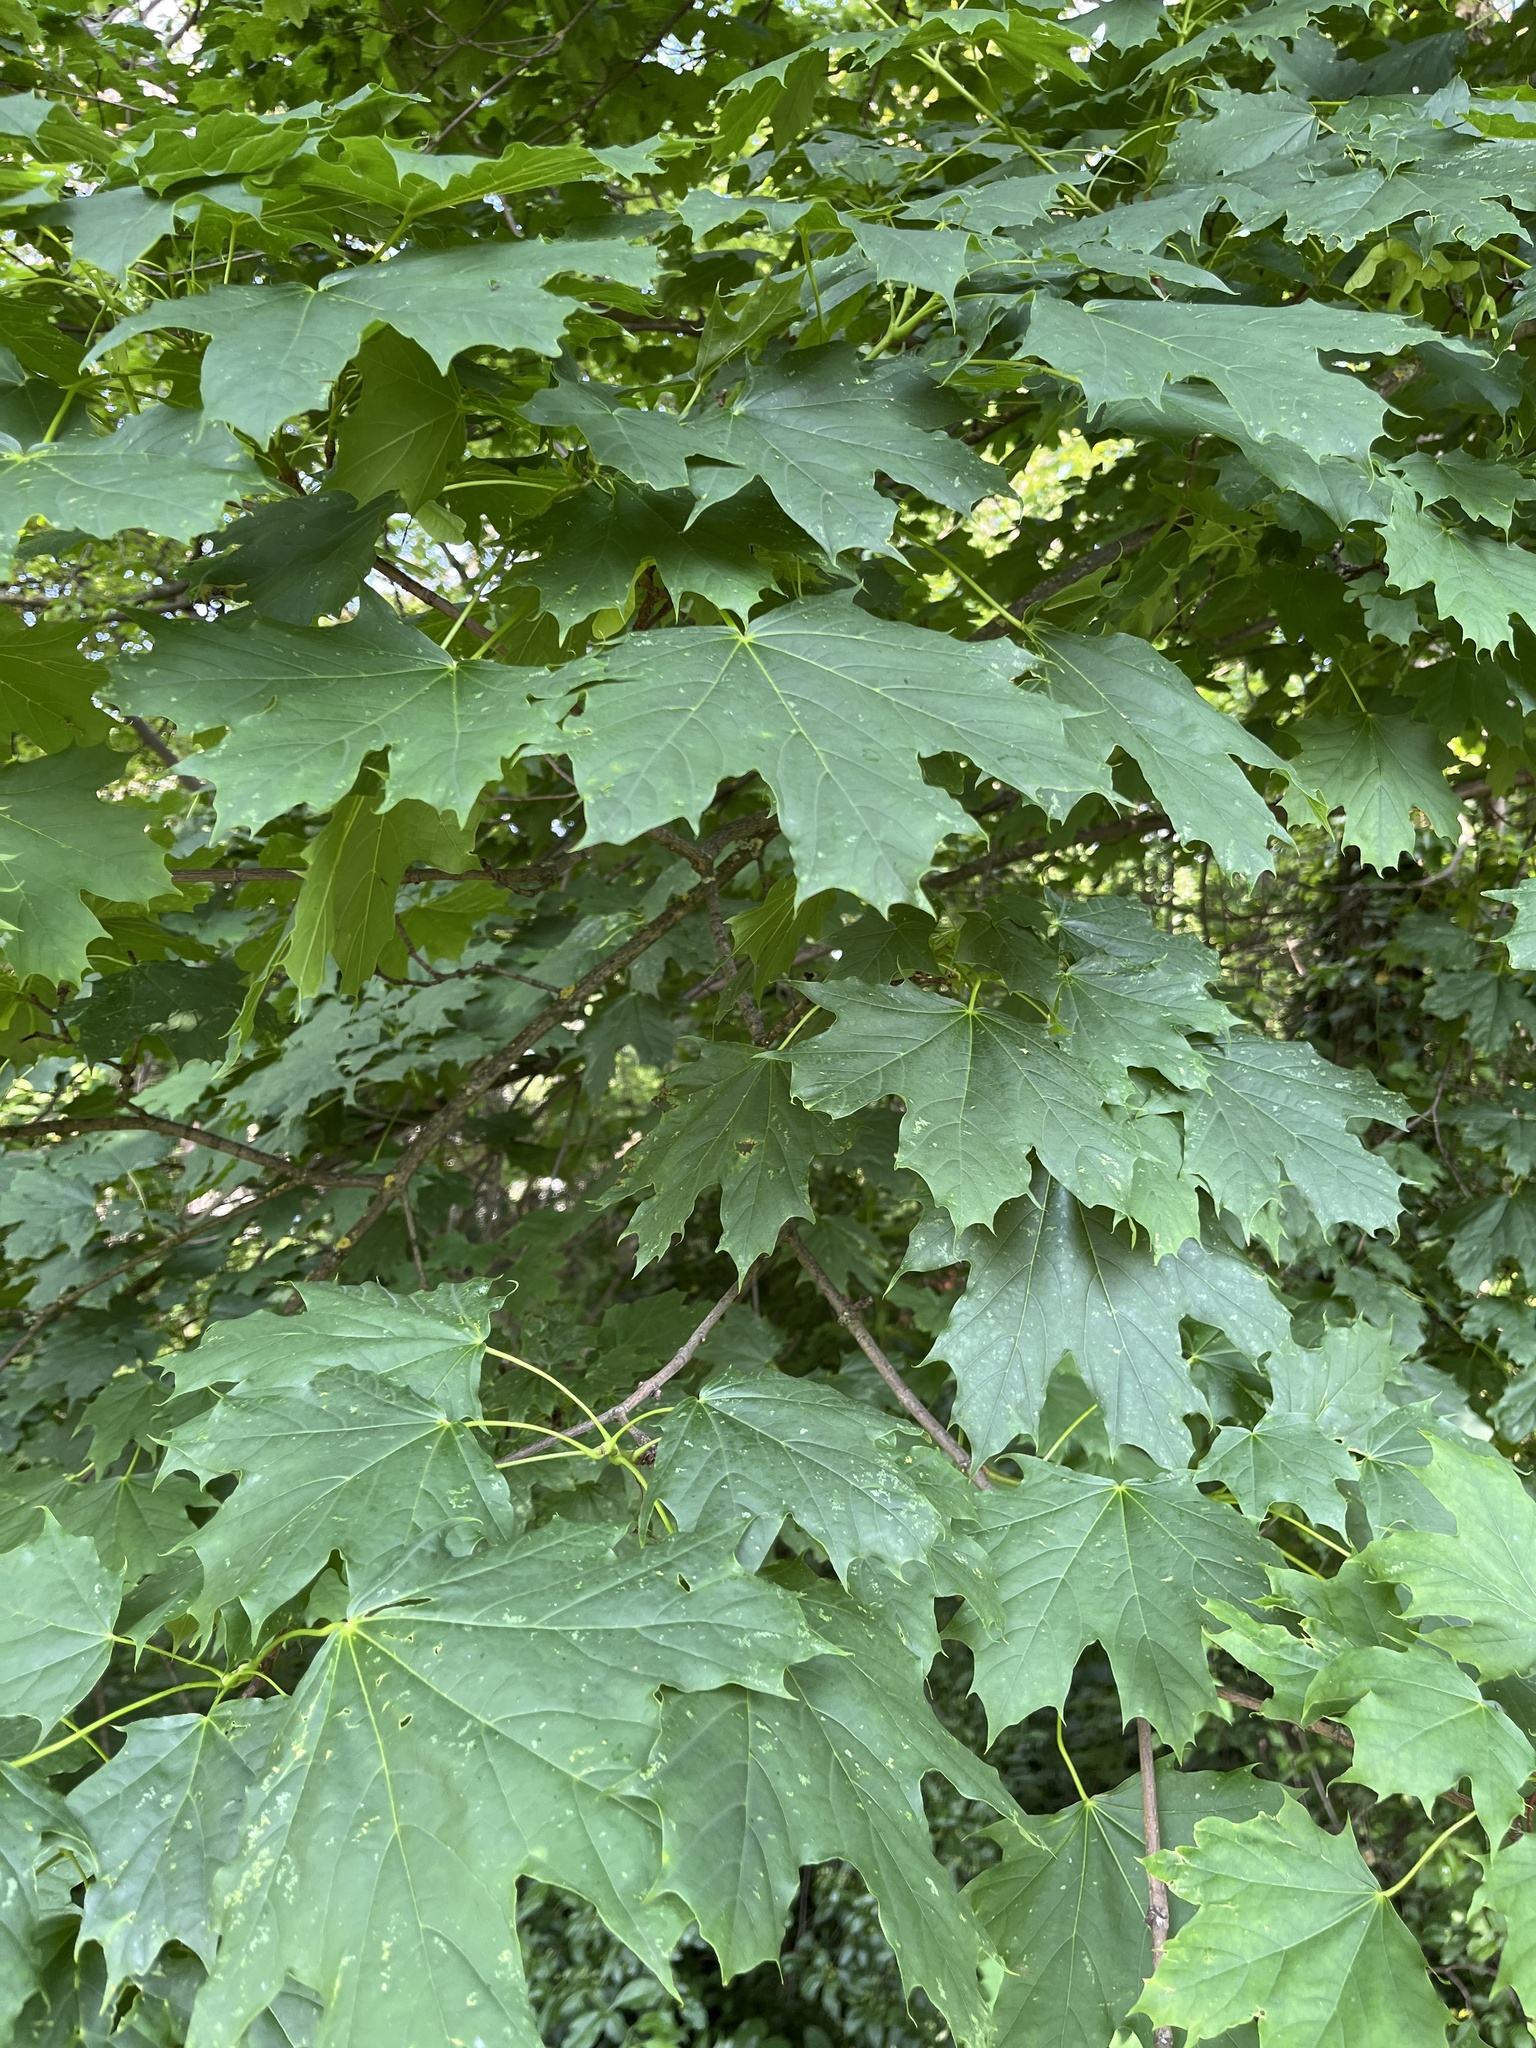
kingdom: Plantae
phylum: Tracheophyta
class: Magnoliopsida
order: Sapindales
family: Sapindaceae
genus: Acer
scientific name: Acer platanoides
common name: Norway maple
